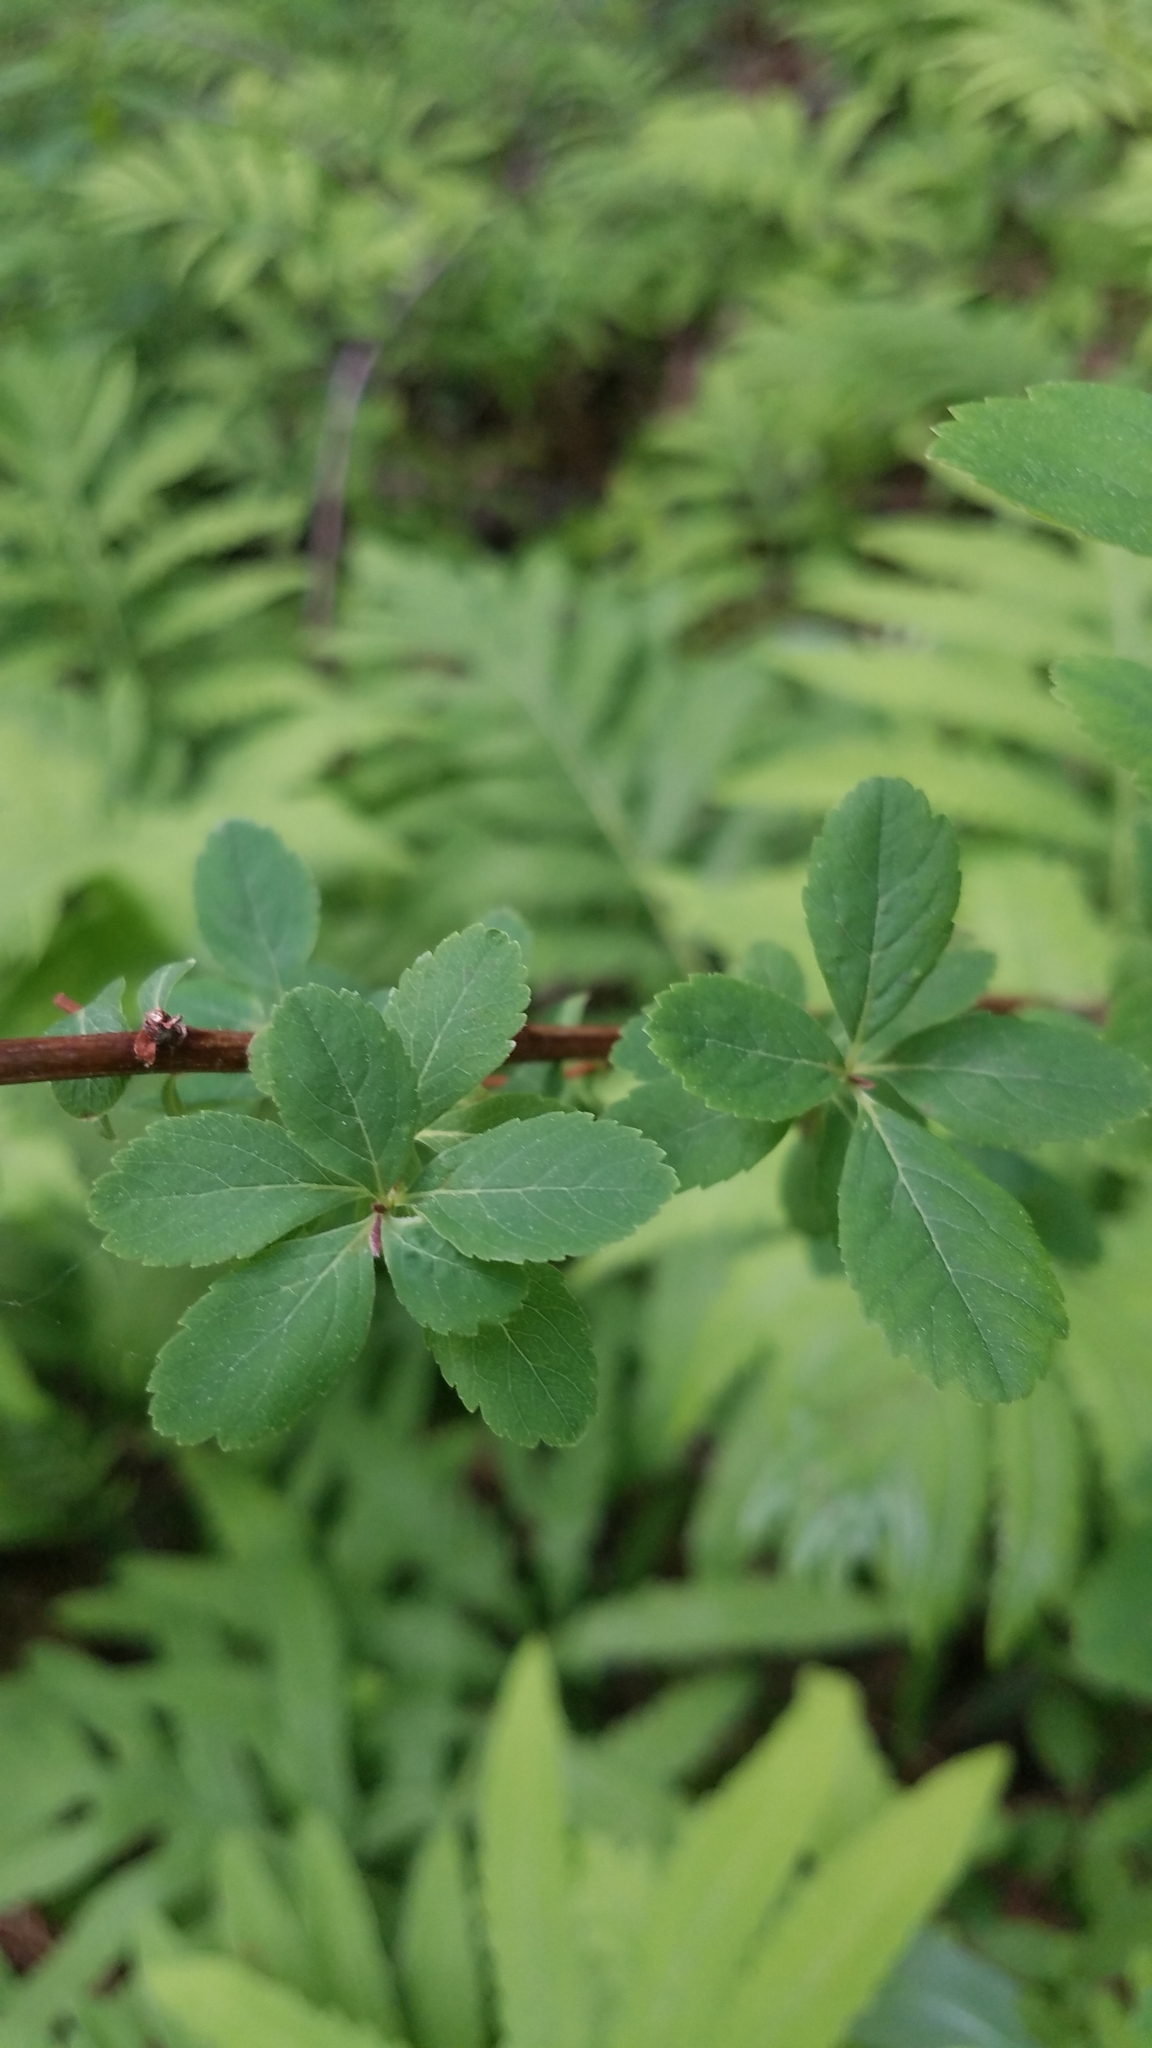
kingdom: Plantae
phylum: Tracheophyta
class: Magnoliopsida
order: Rosales
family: Rosaceae
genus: Spiraea
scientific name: Spiraea alba
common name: Pale bridewort
